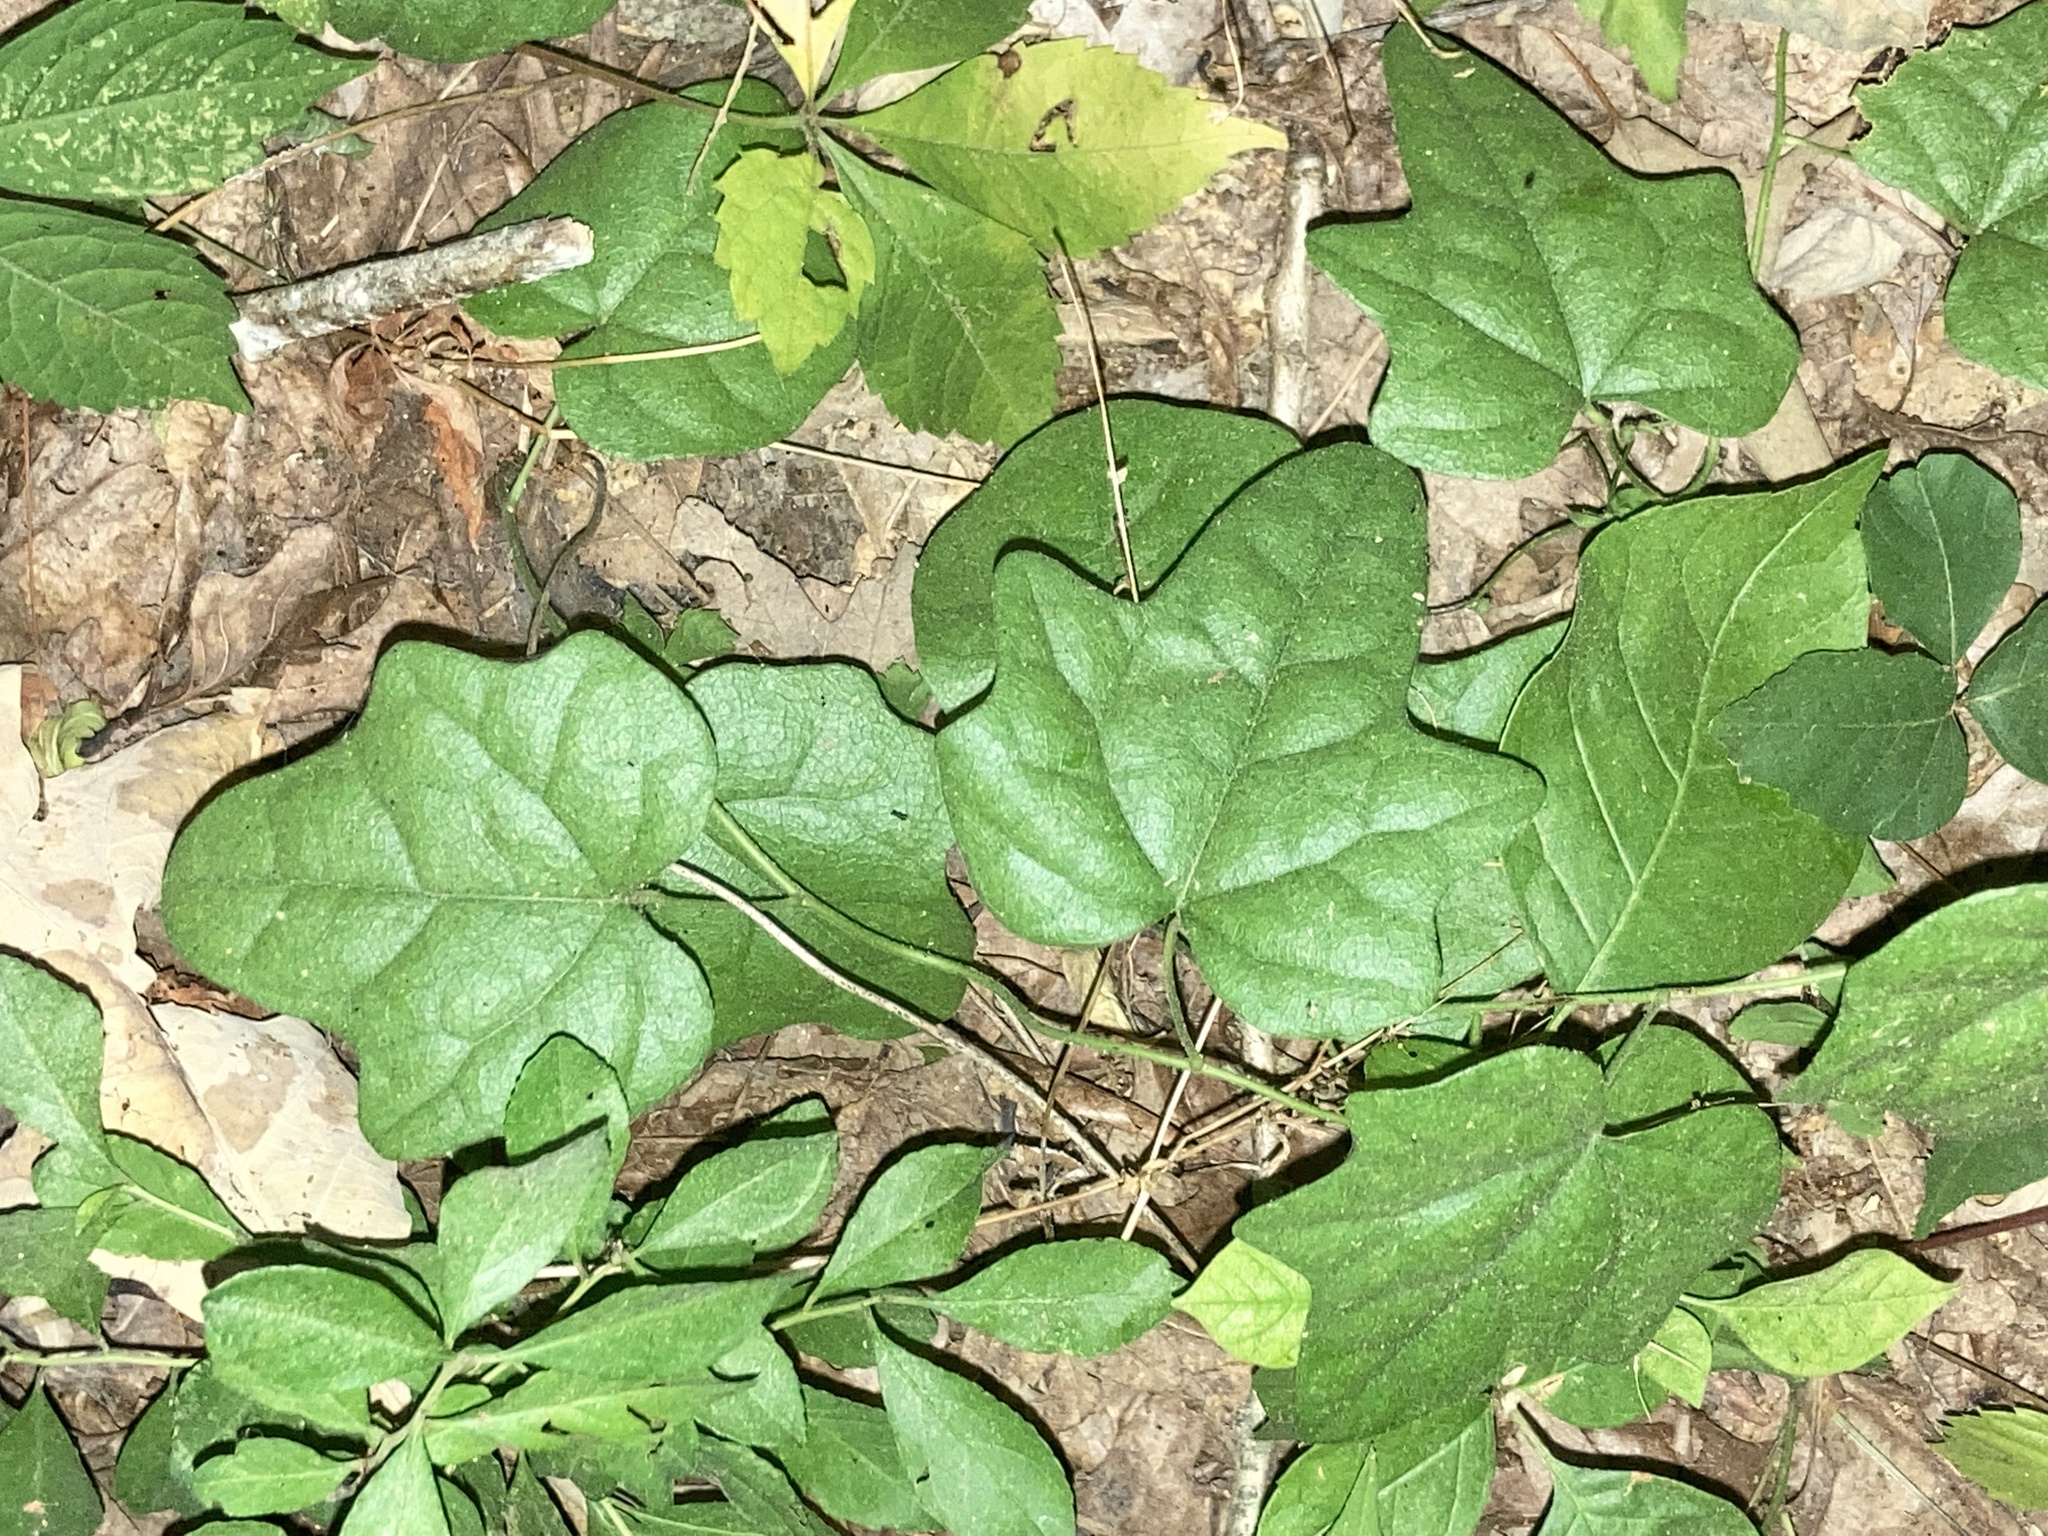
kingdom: Plantae
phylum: Tracheophyta
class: Magnoliopsida
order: Ranunculales
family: Menispermaceae
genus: Cocculus
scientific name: Cocculus carolinus
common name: Carolina moonseed
